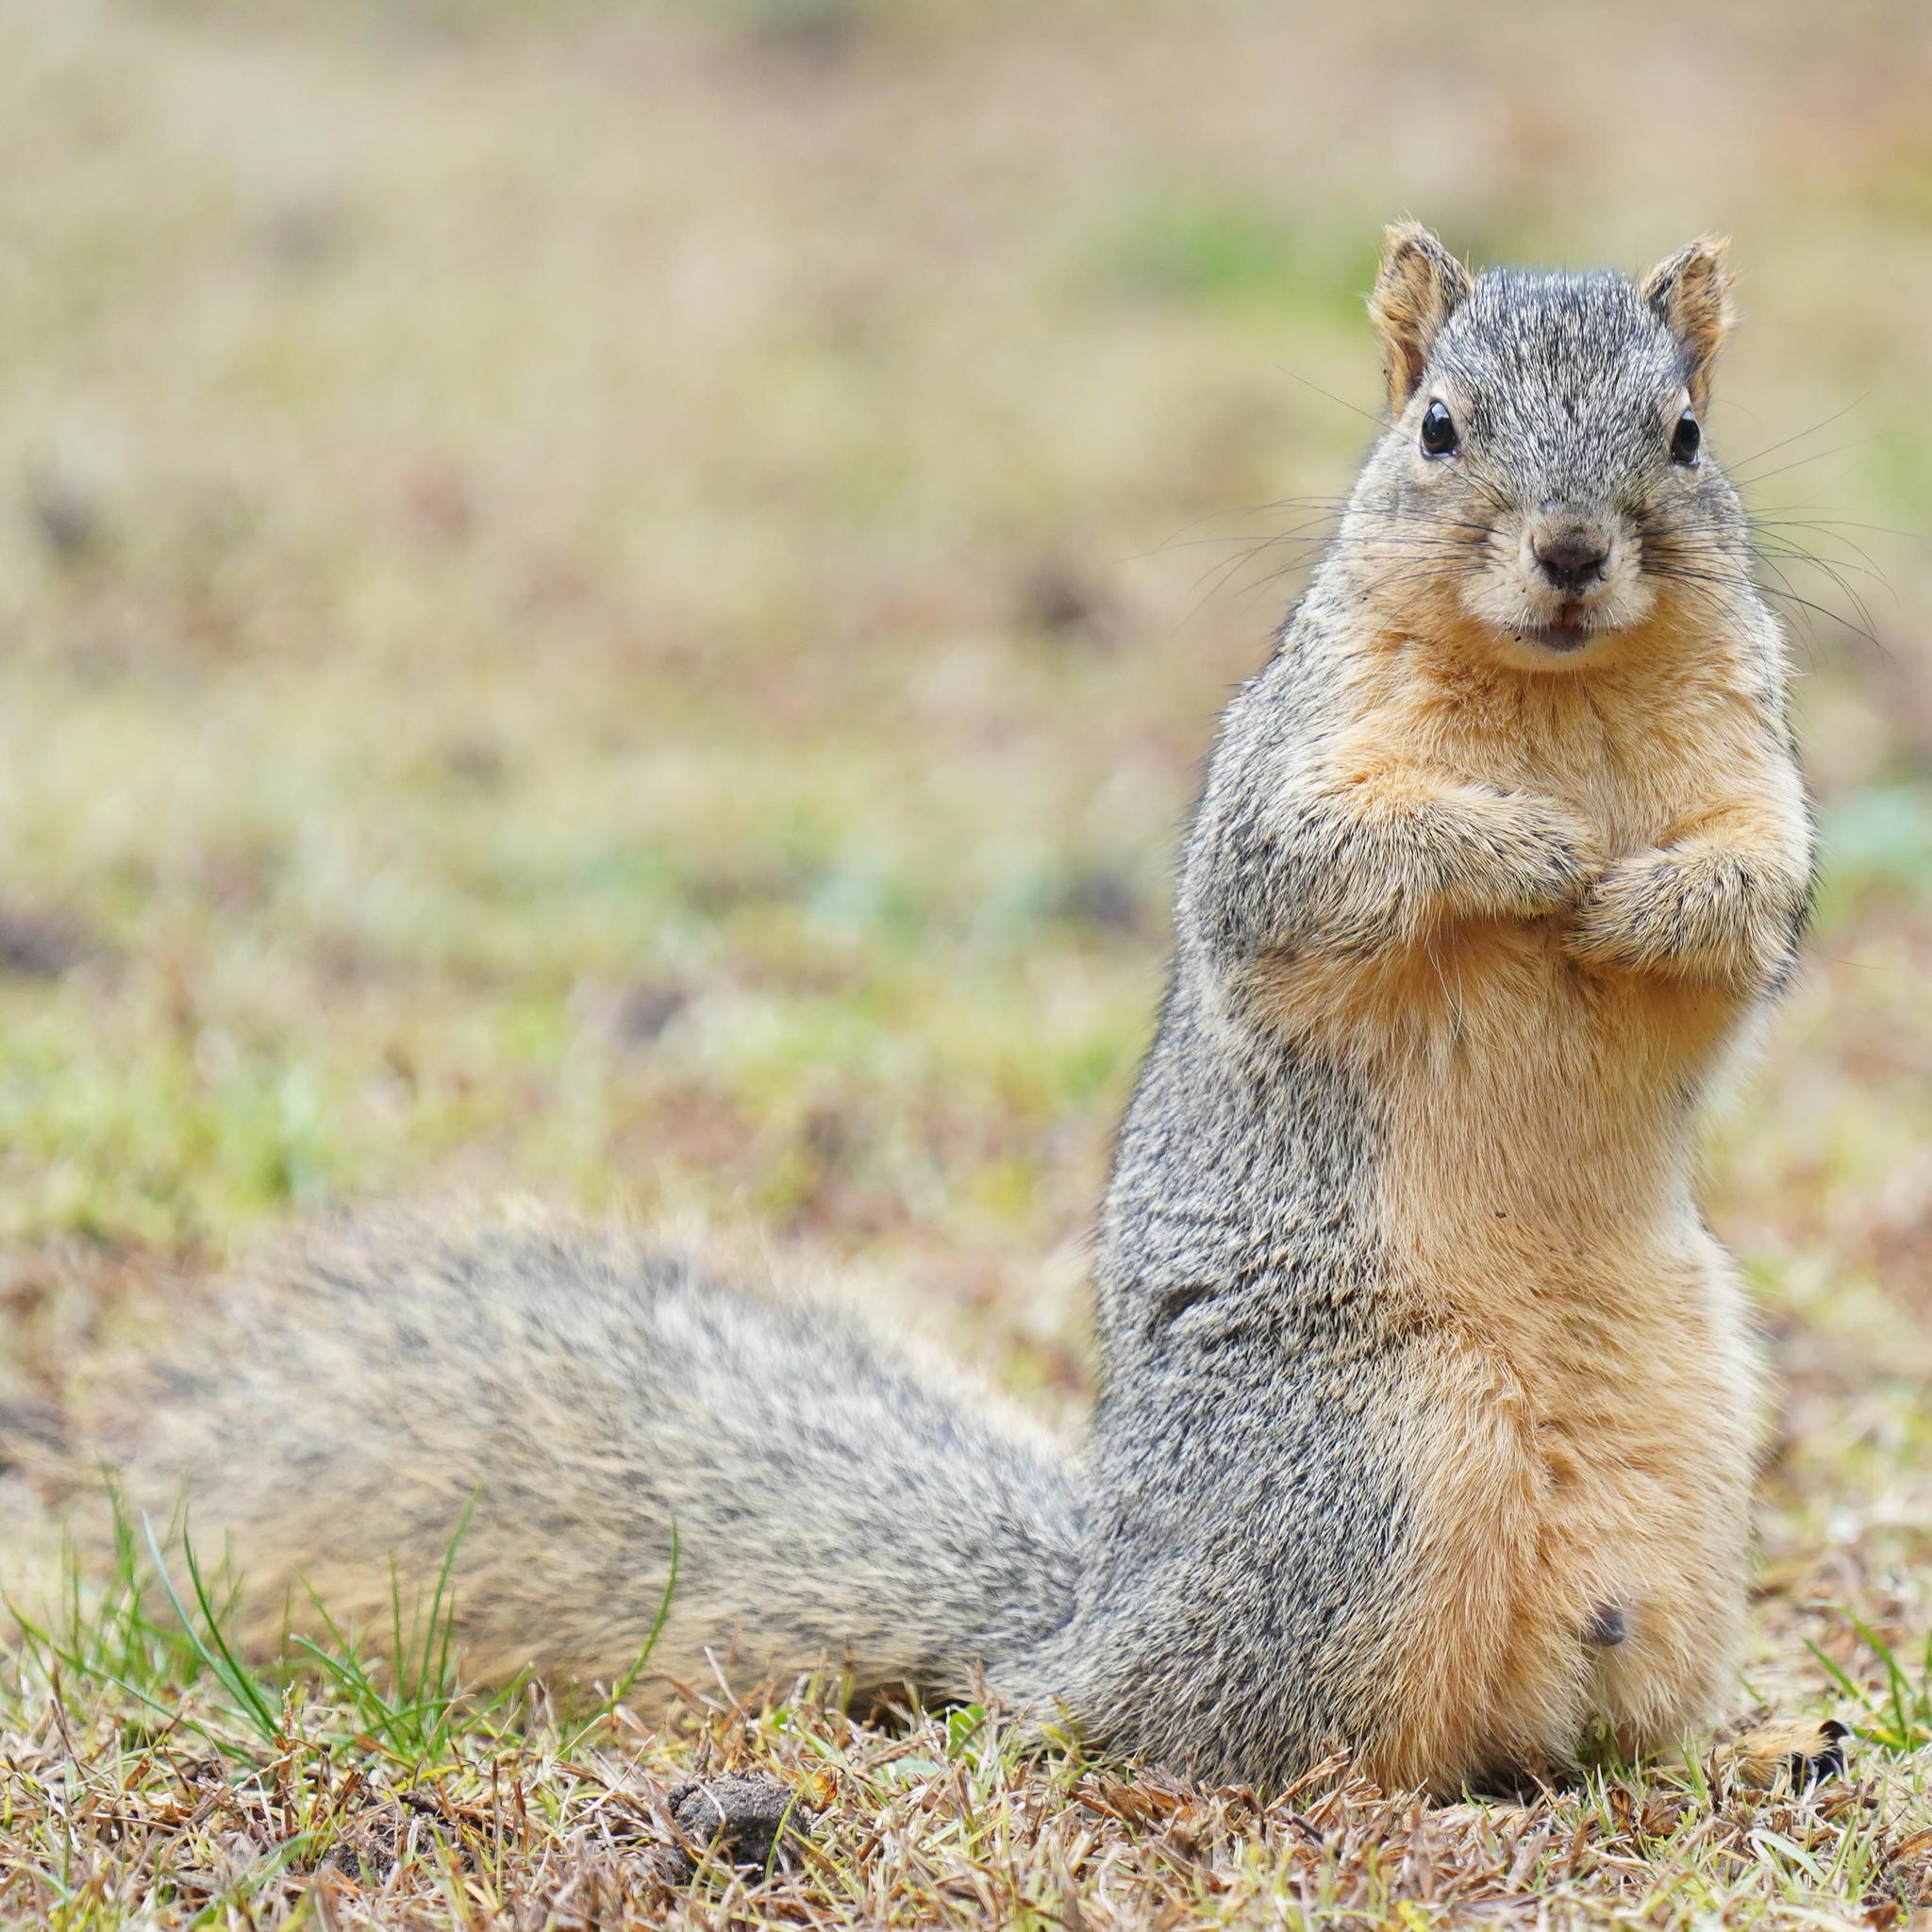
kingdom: Animalia
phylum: Chordata
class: Mammalia
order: Rodentia
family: Sciuridae
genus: Sciurus
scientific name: Sciurus niger
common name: Fox squirrel
